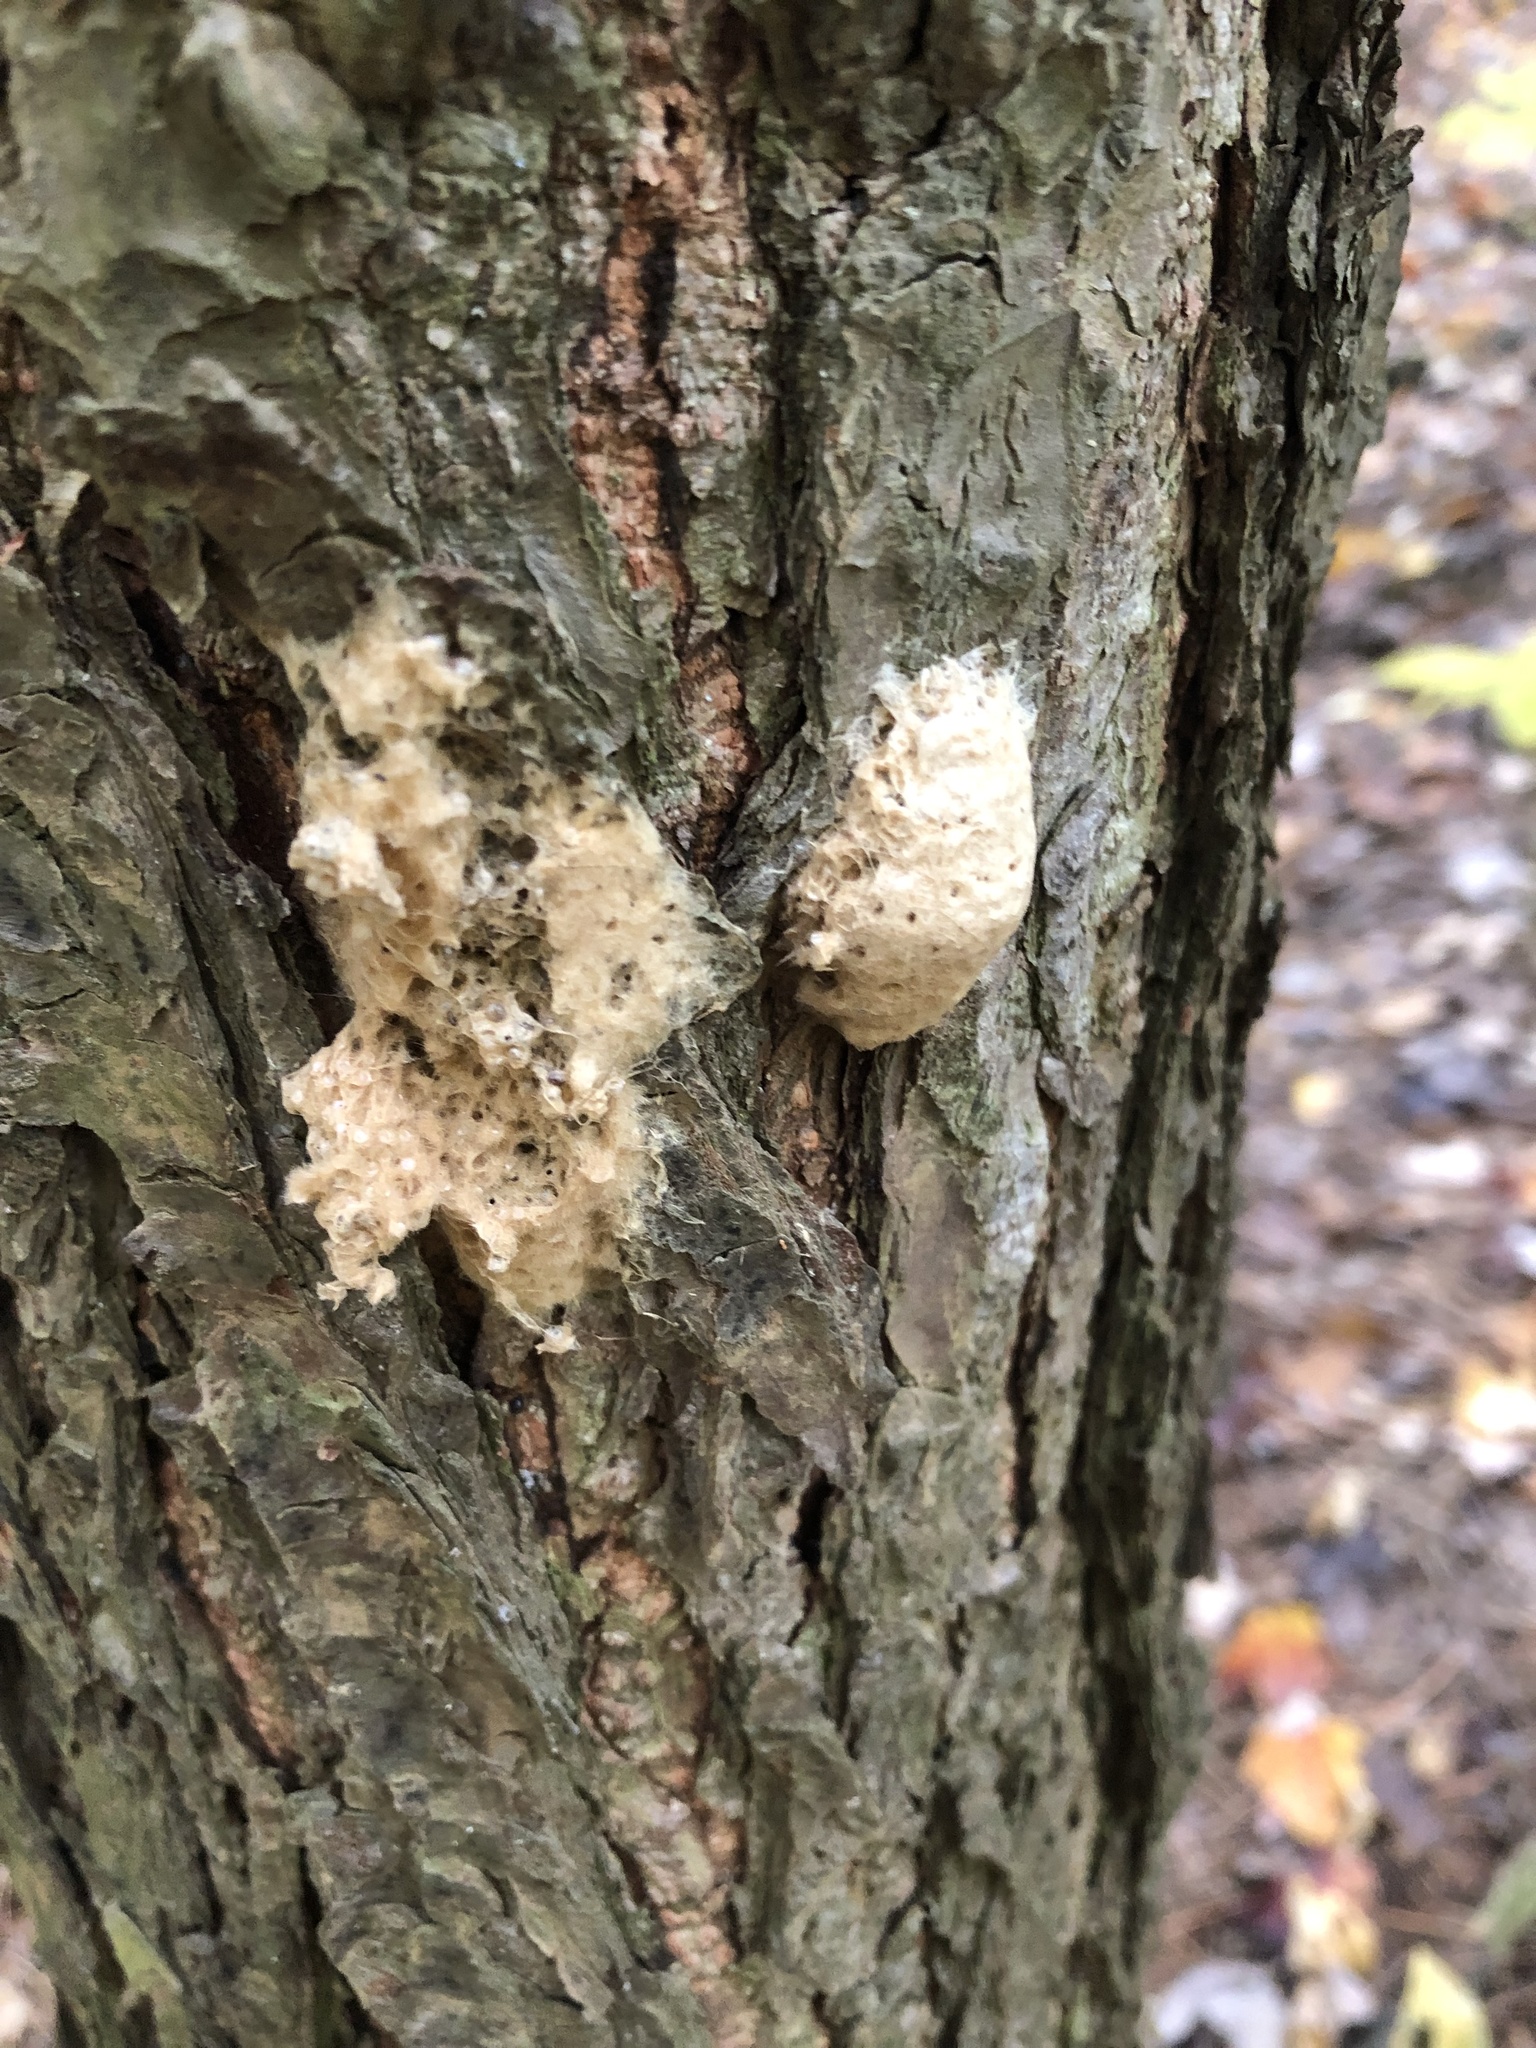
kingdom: Animalia
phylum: Arthropoda
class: Insecta
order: Lepidoptera
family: Erebidae
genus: Lymantria
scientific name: Lymantria dispar
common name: Gypsy moth
